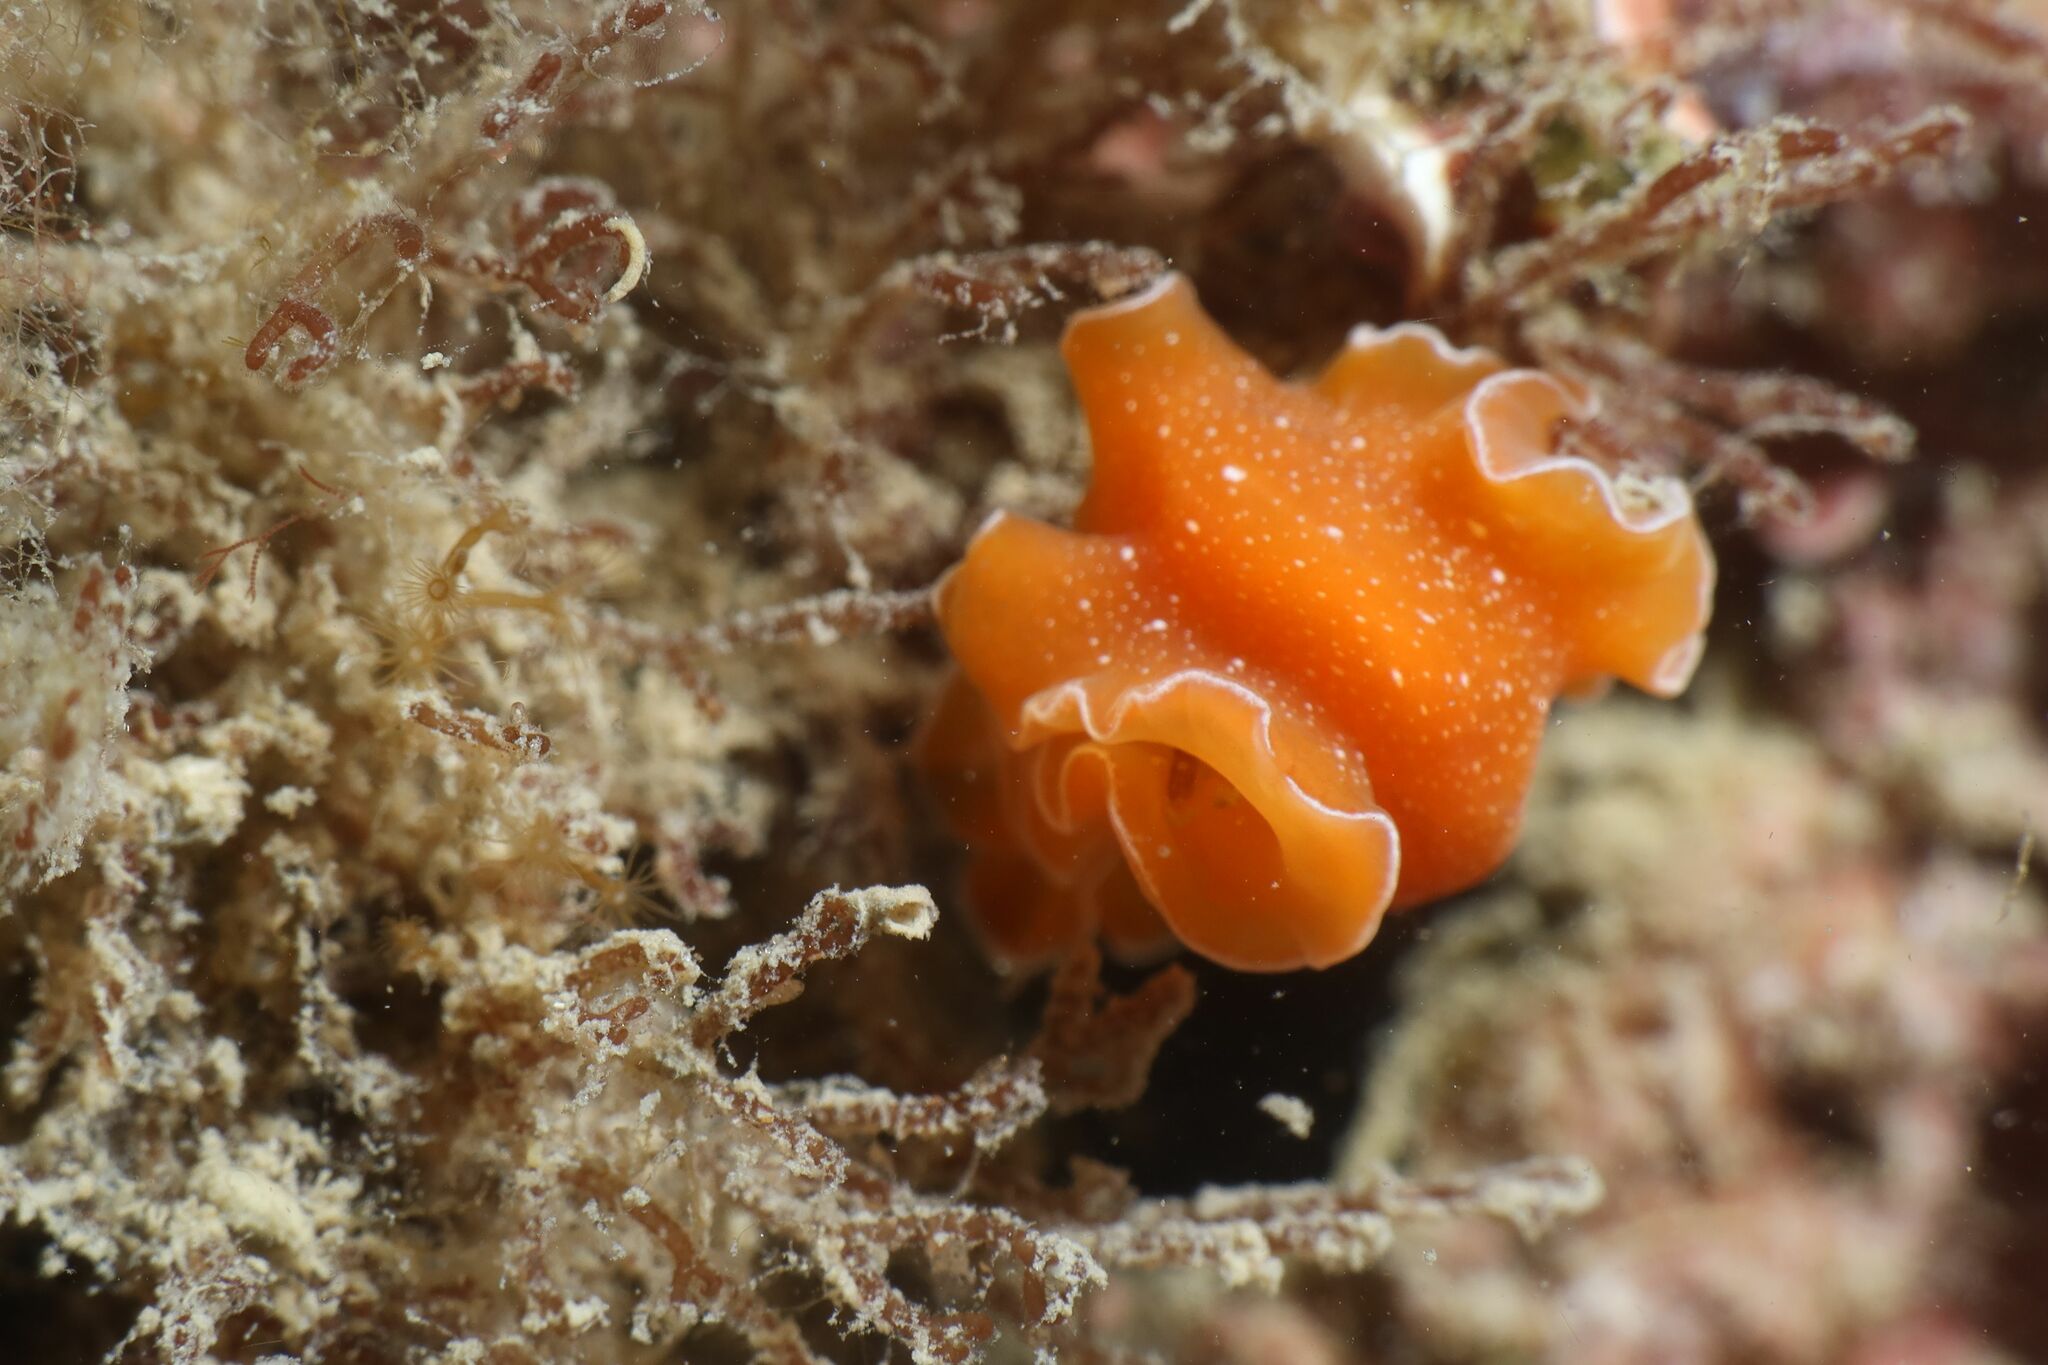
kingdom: Animalia
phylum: Platyhelminthes
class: Turbellaria
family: Pseudocerotidae
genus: Yungia
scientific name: Yungia aurantiaca
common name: Mediterranean orange polyclad worm
